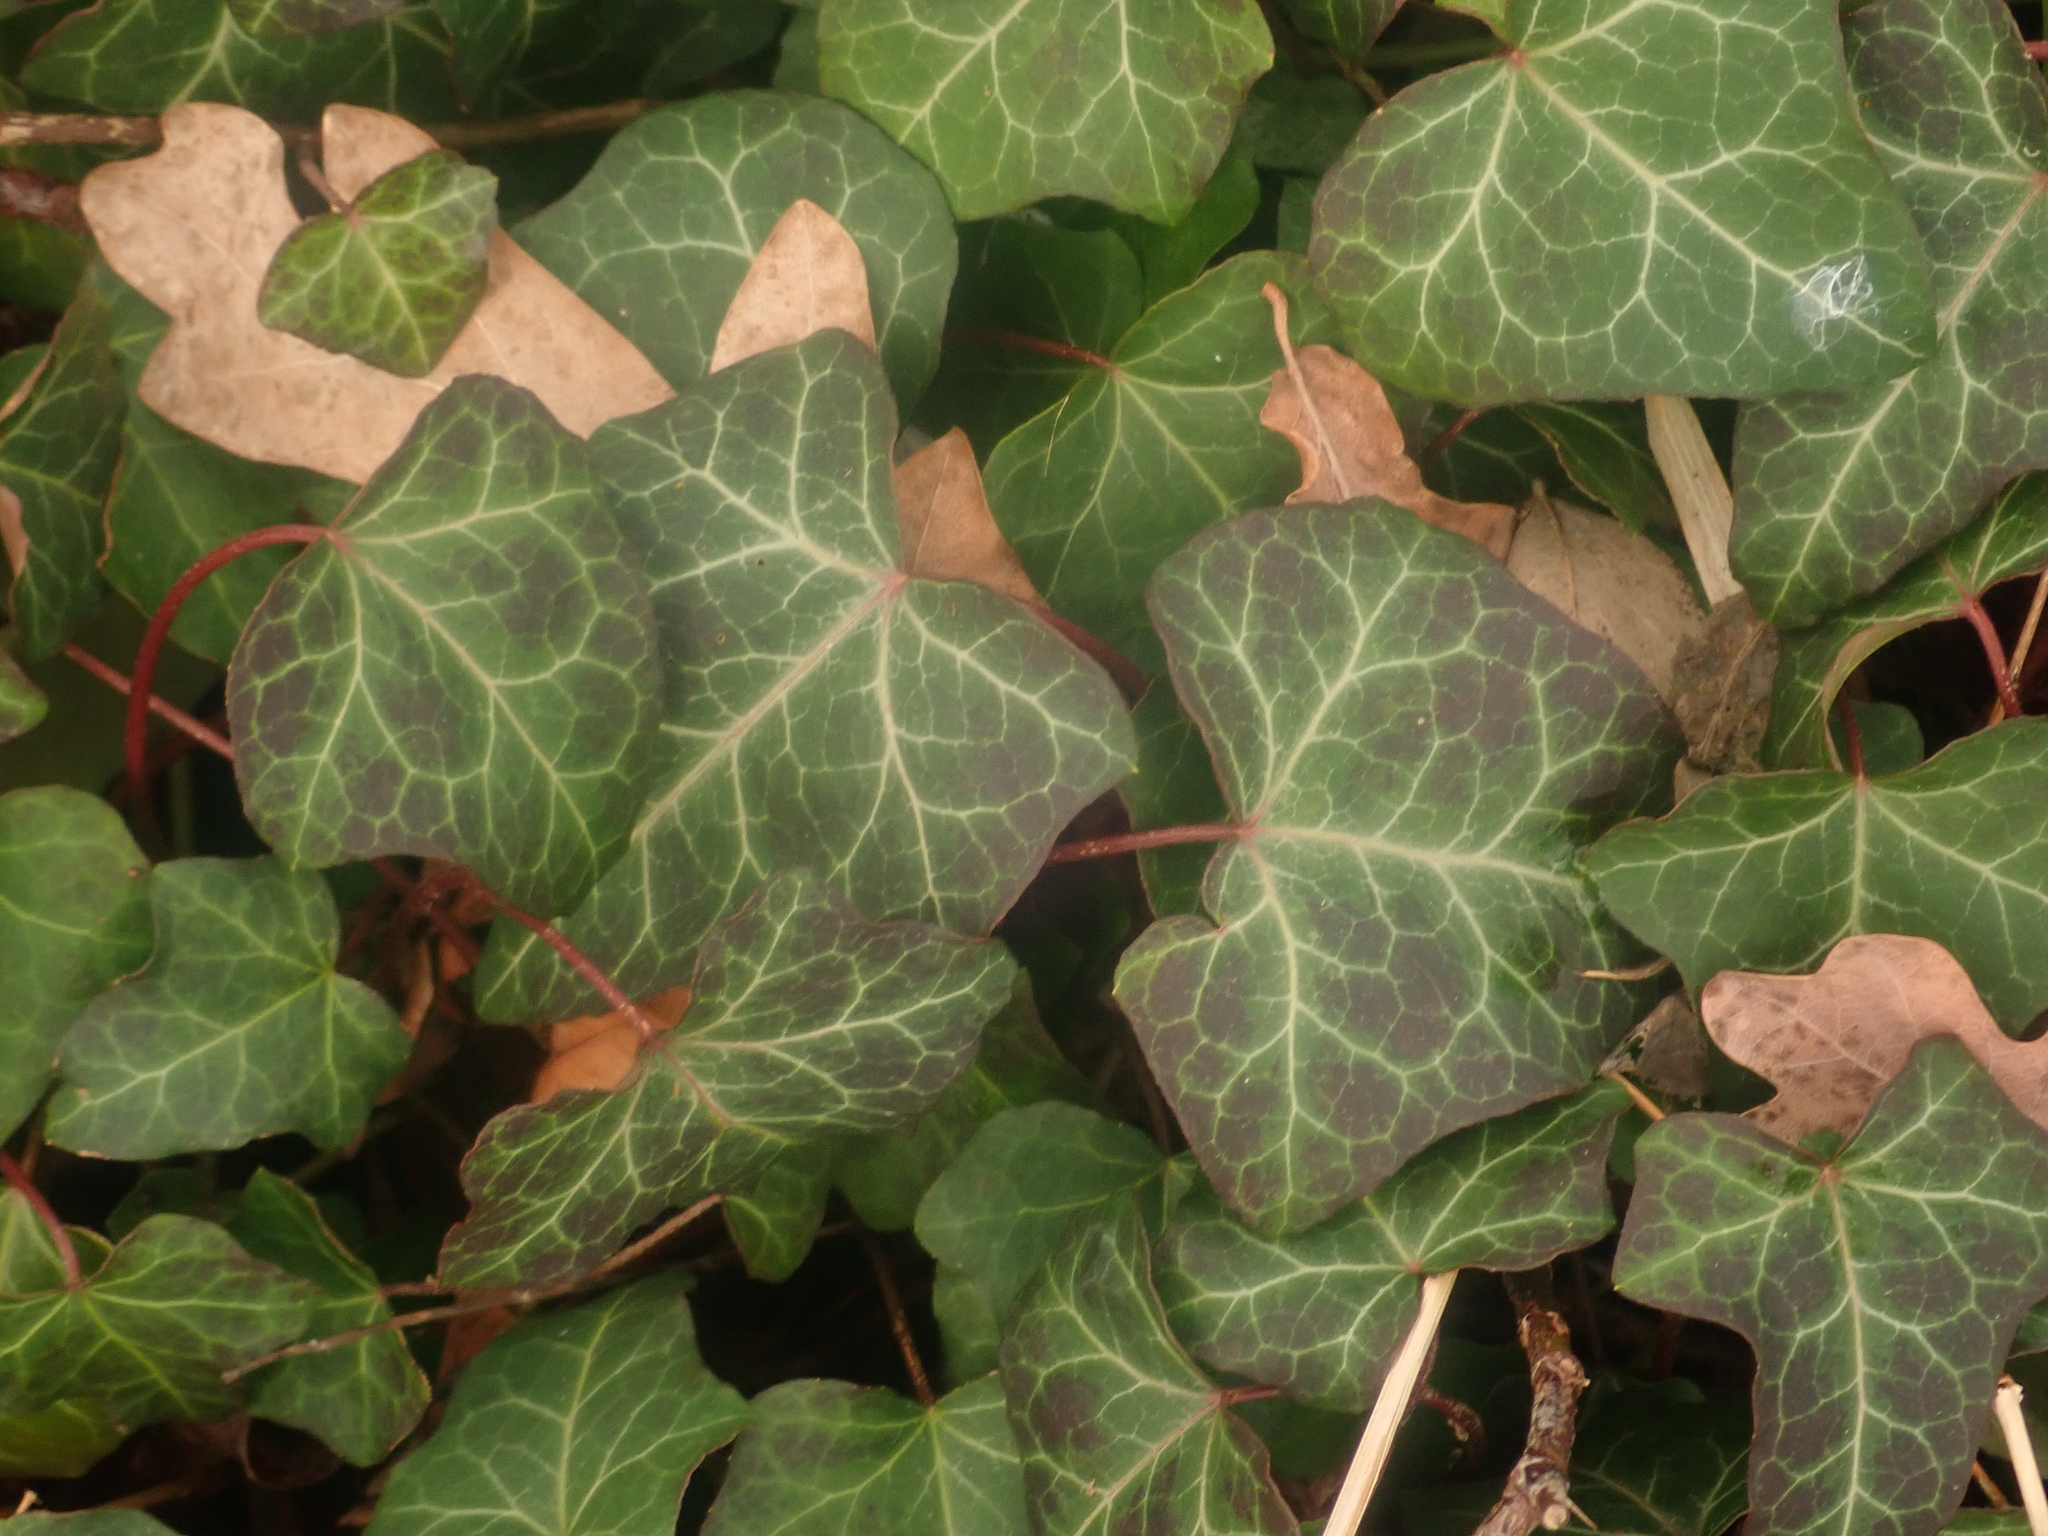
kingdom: Plantae
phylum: Tracheophyta
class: Magnoliopsida
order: Apiales
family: Araliaceae
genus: Hedera
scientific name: Hedera helix
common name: Ivy
